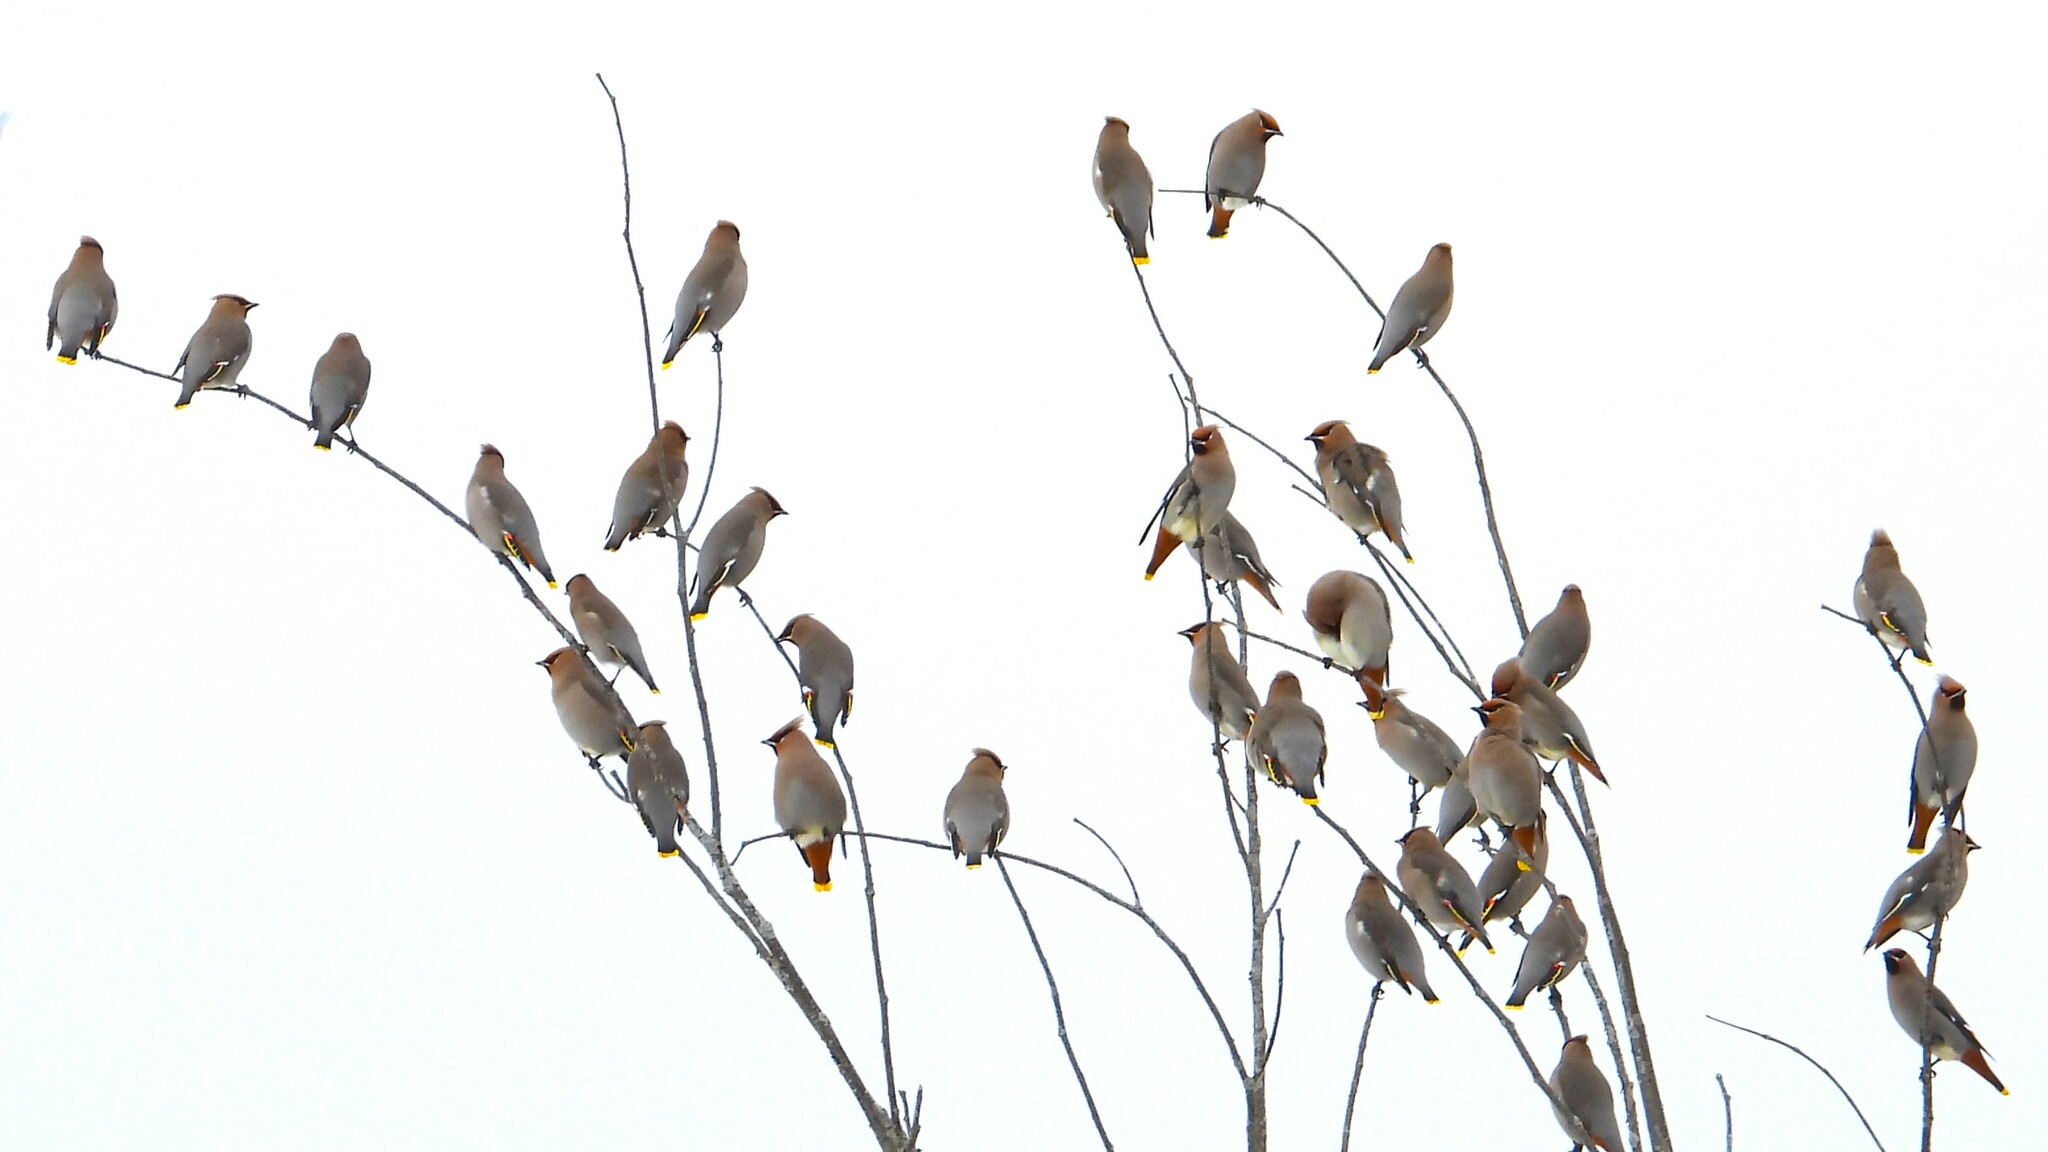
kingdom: Animalia
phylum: Chordata
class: Aves
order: Passeriformes
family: Bombycillidae
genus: Bombycilla
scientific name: Bombycilla garrulus
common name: Bohemian waxwing
